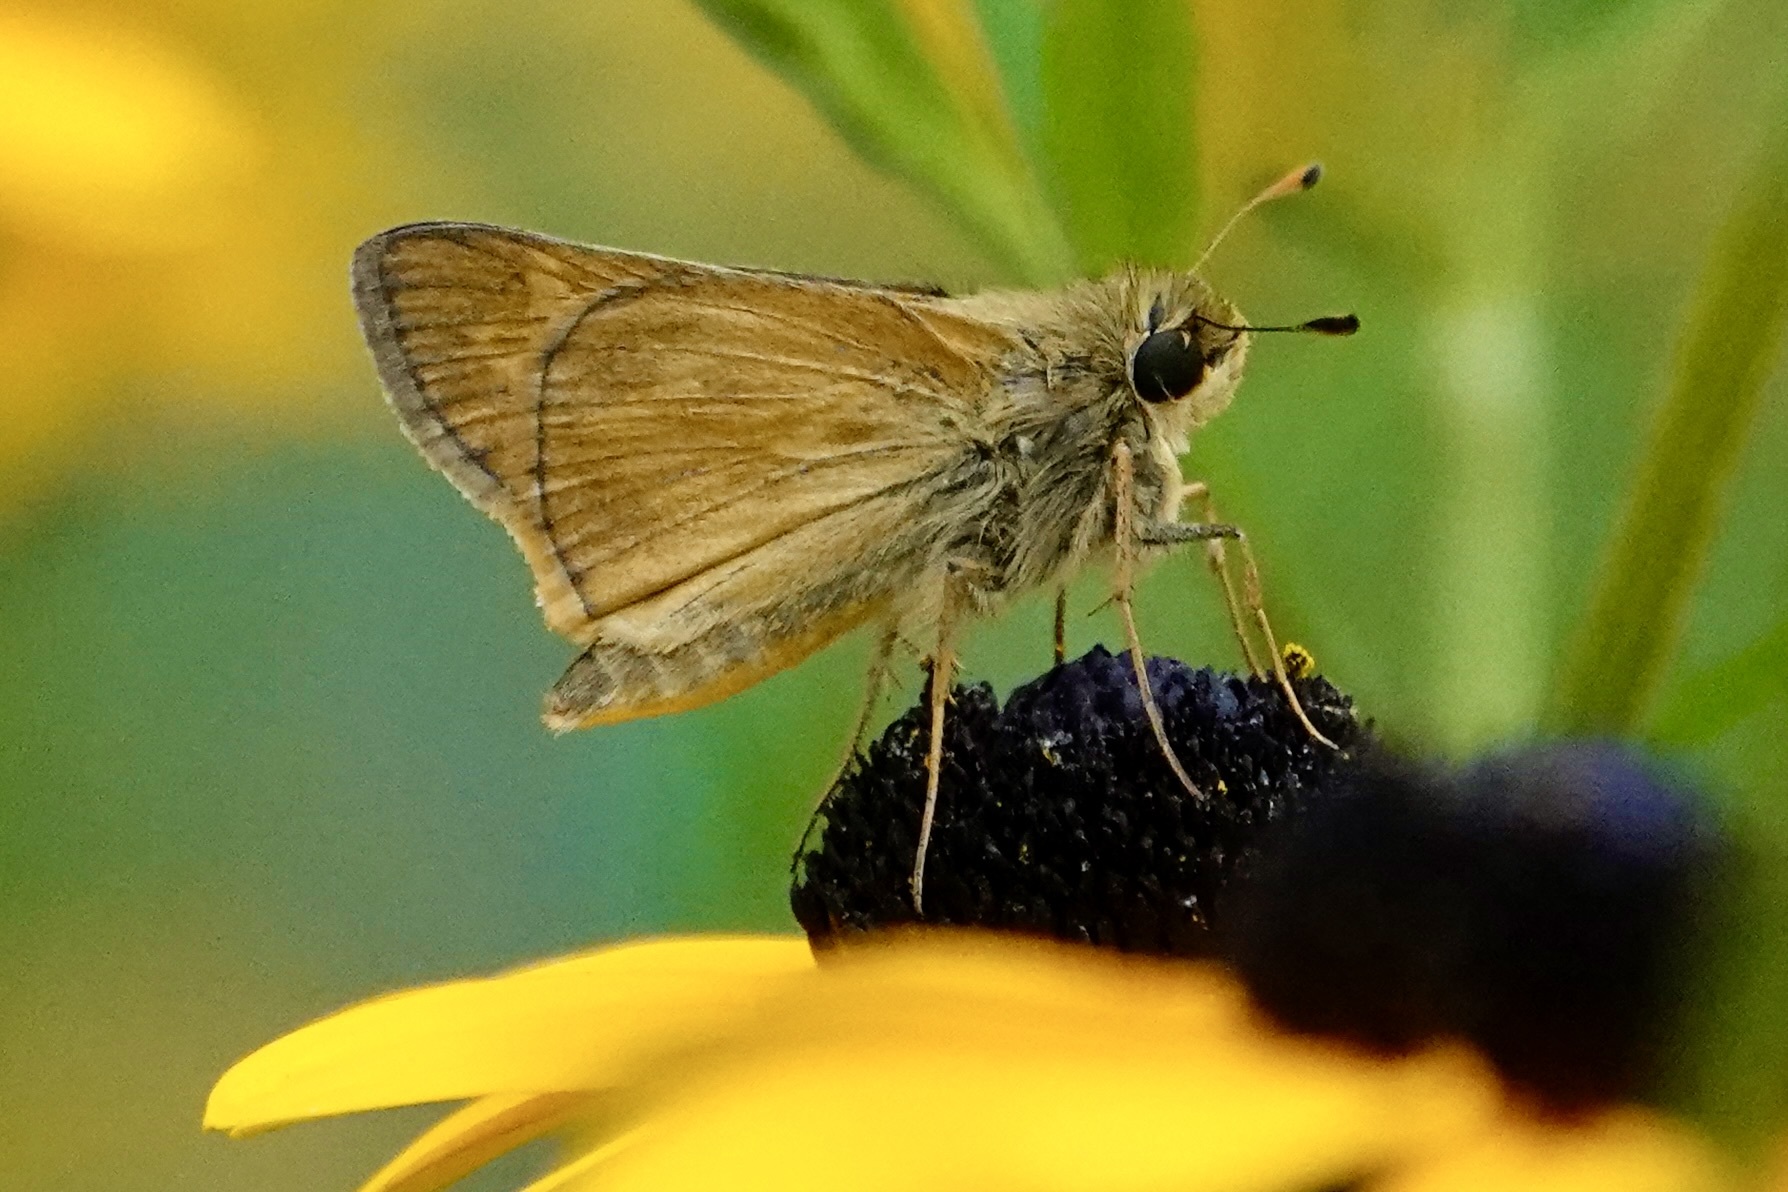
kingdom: Animalia
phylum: Arthropoda
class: Insecta
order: Lepidoptera
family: Hesperiidae
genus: Atalopedes
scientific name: Atalopedes
